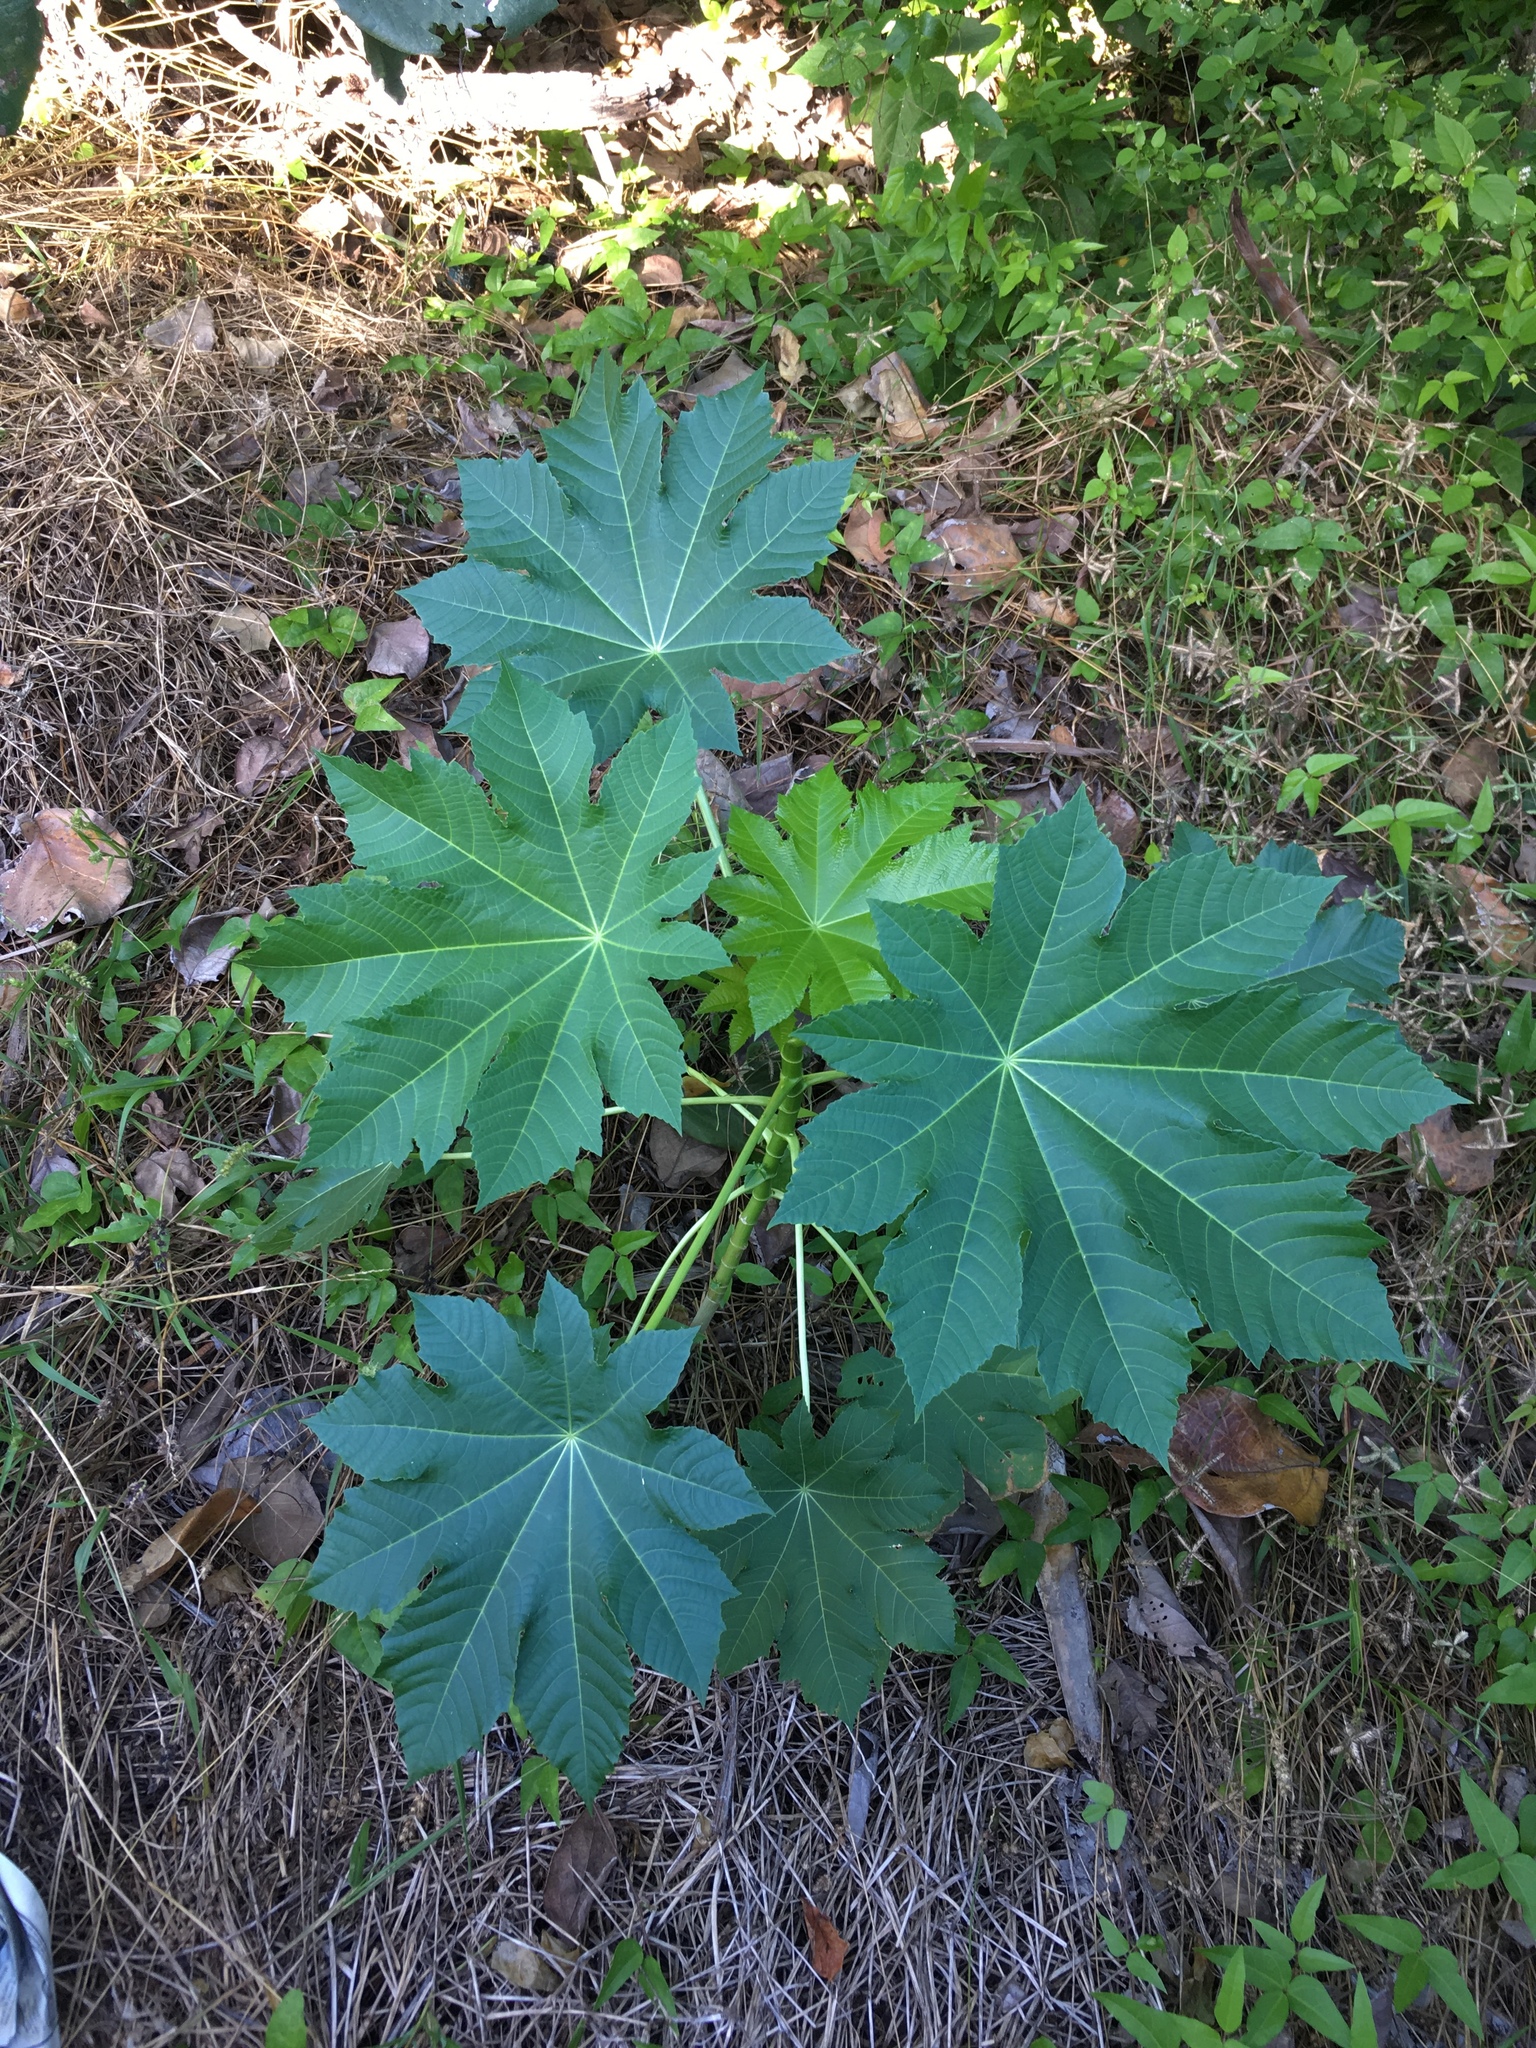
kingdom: Plantae
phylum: Tracheophyta
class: Magnoliopsida
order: Malpighiales
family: Euphorbiaceae
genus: Ricinus
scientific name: Ricinus communis
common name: Castor-oil-plant
